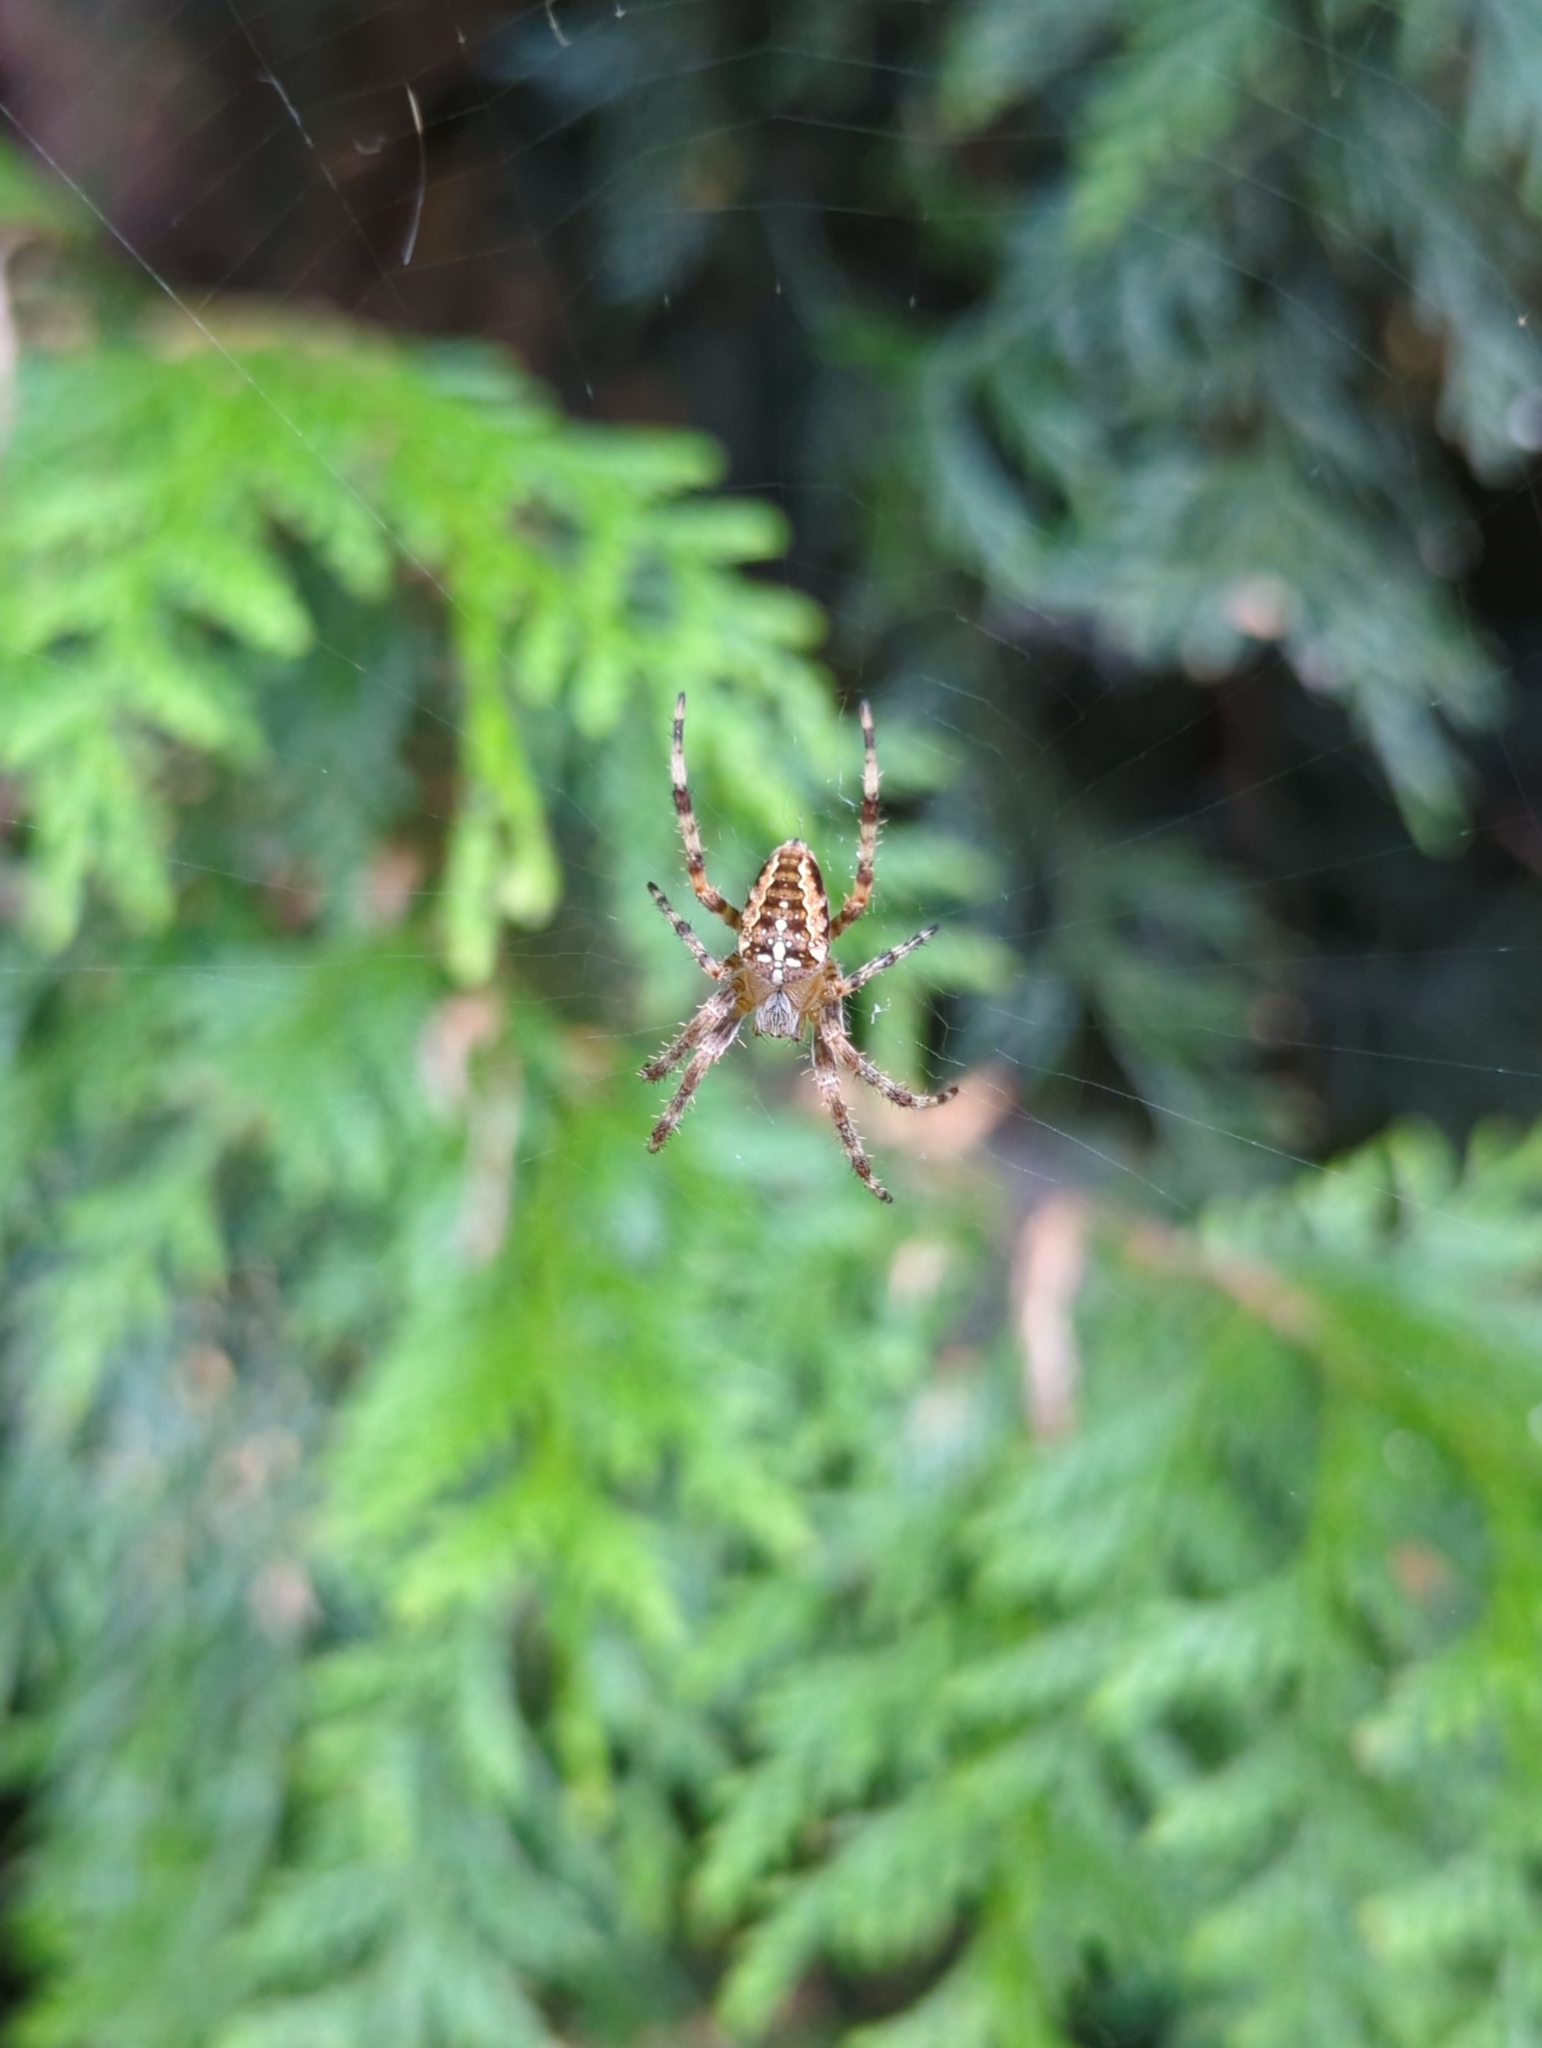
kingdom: Animalia
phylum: Arthropoda
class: Arachnida
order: Araneae
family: Araneidae
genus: Araneus
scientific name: Araneus diadematus
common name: Cross orbweaver
